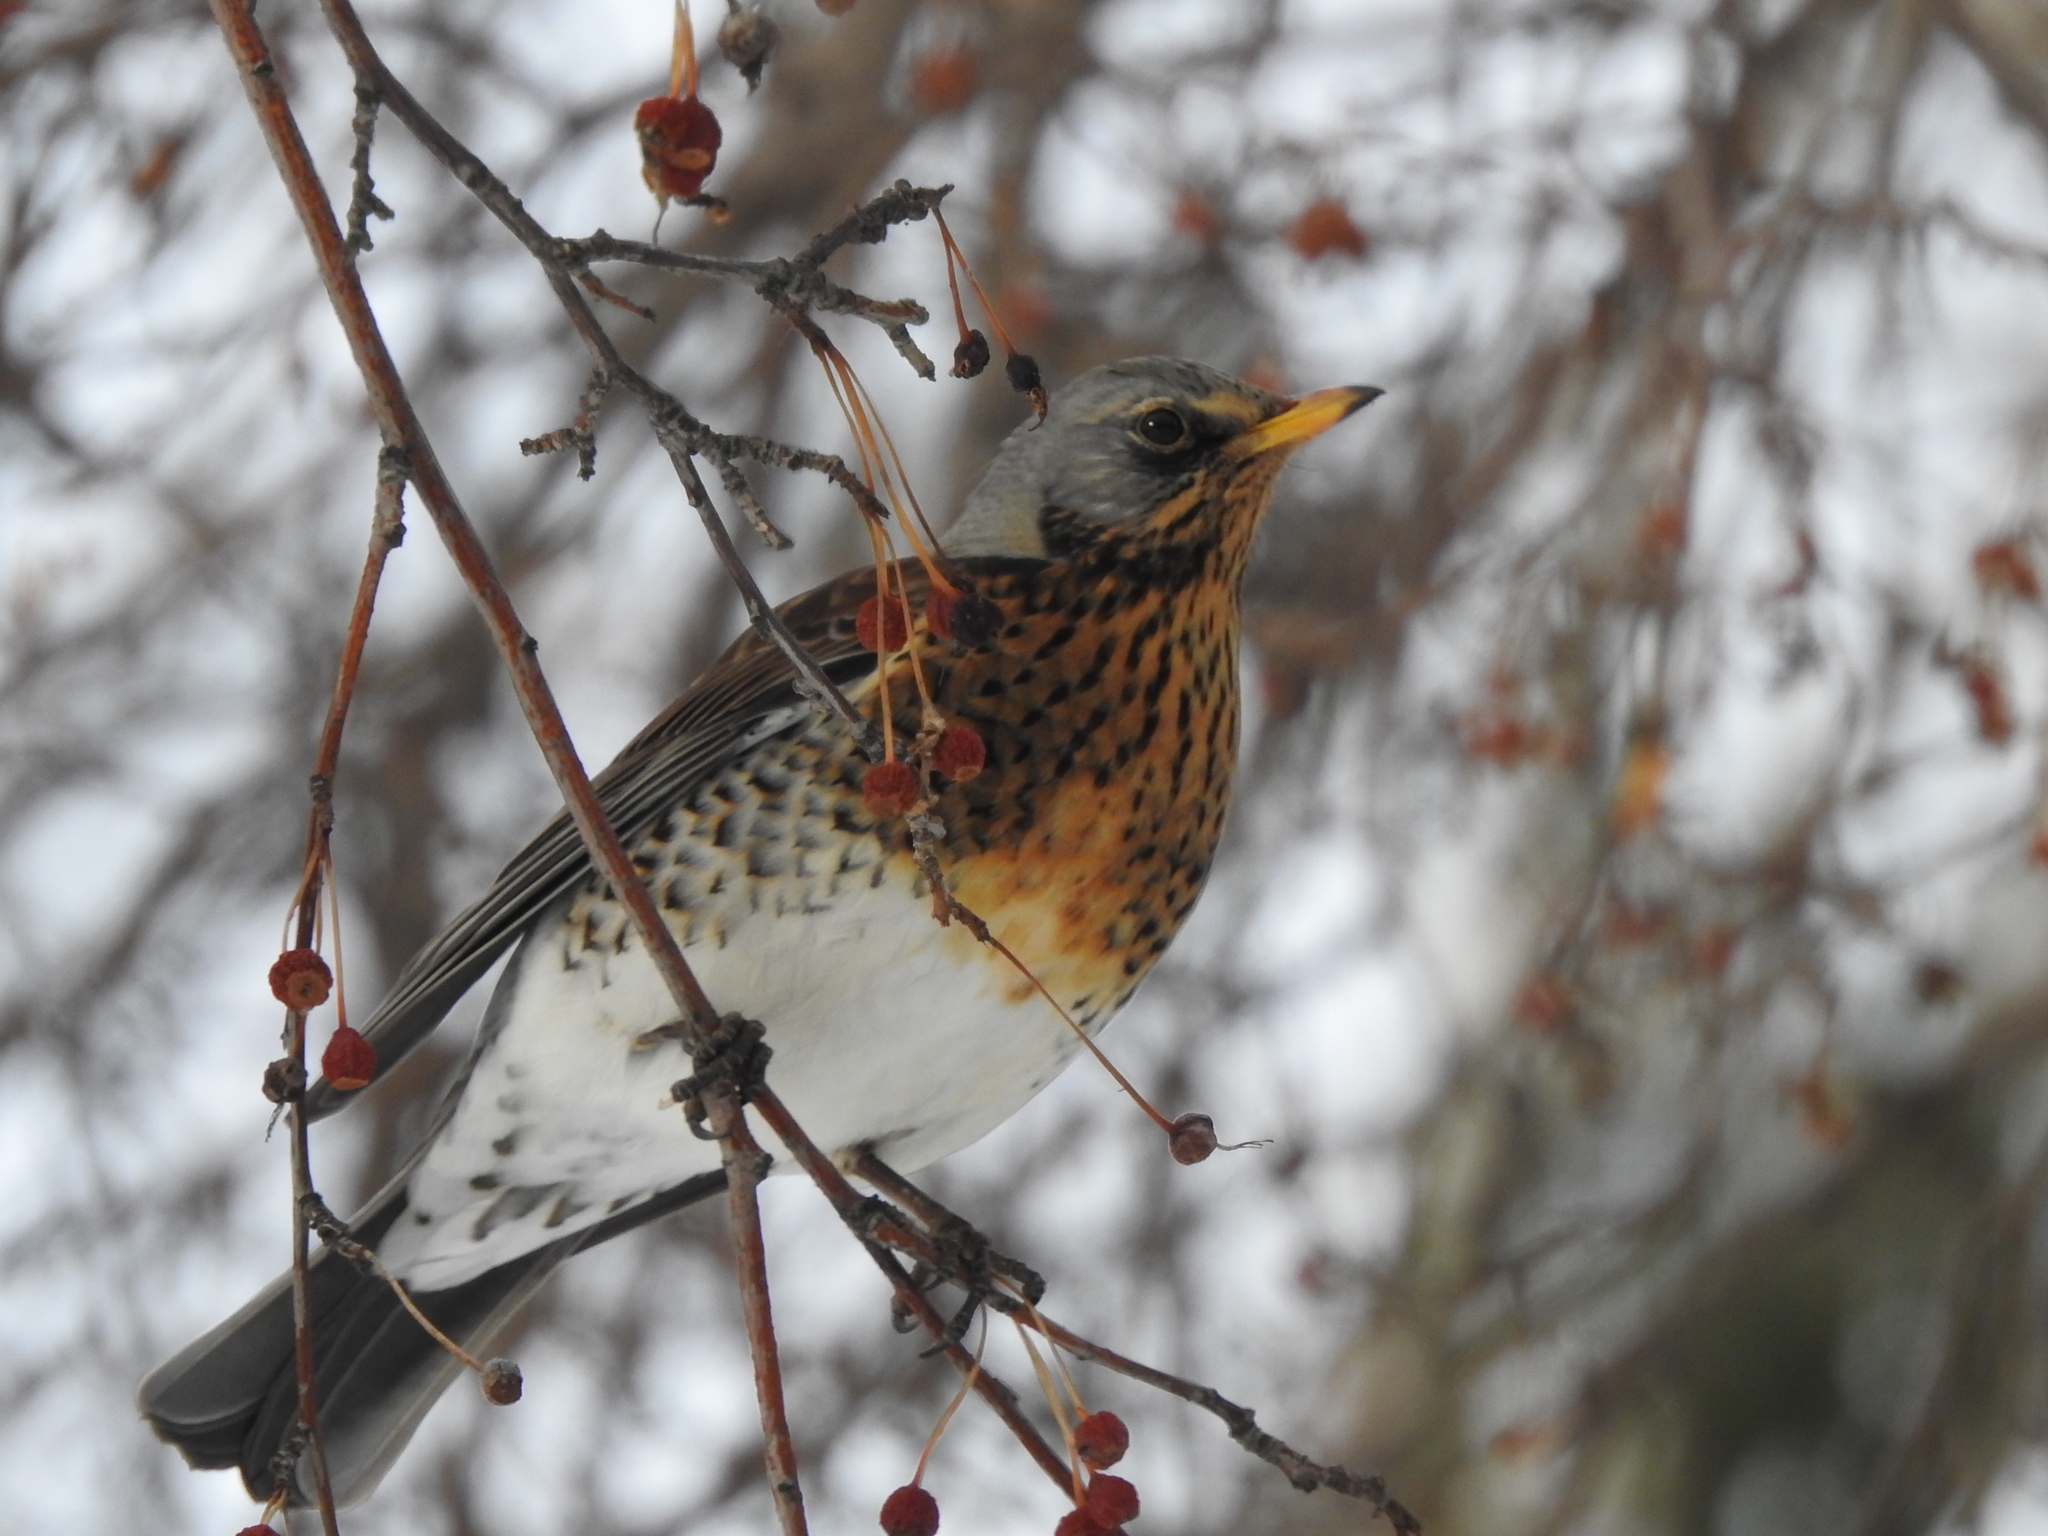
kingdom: Animalia
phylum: Chordata
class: Aves
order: Passeriformes
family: Turdidae
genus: Turdus
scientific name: Turdus pilaris
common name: Fieldfare
